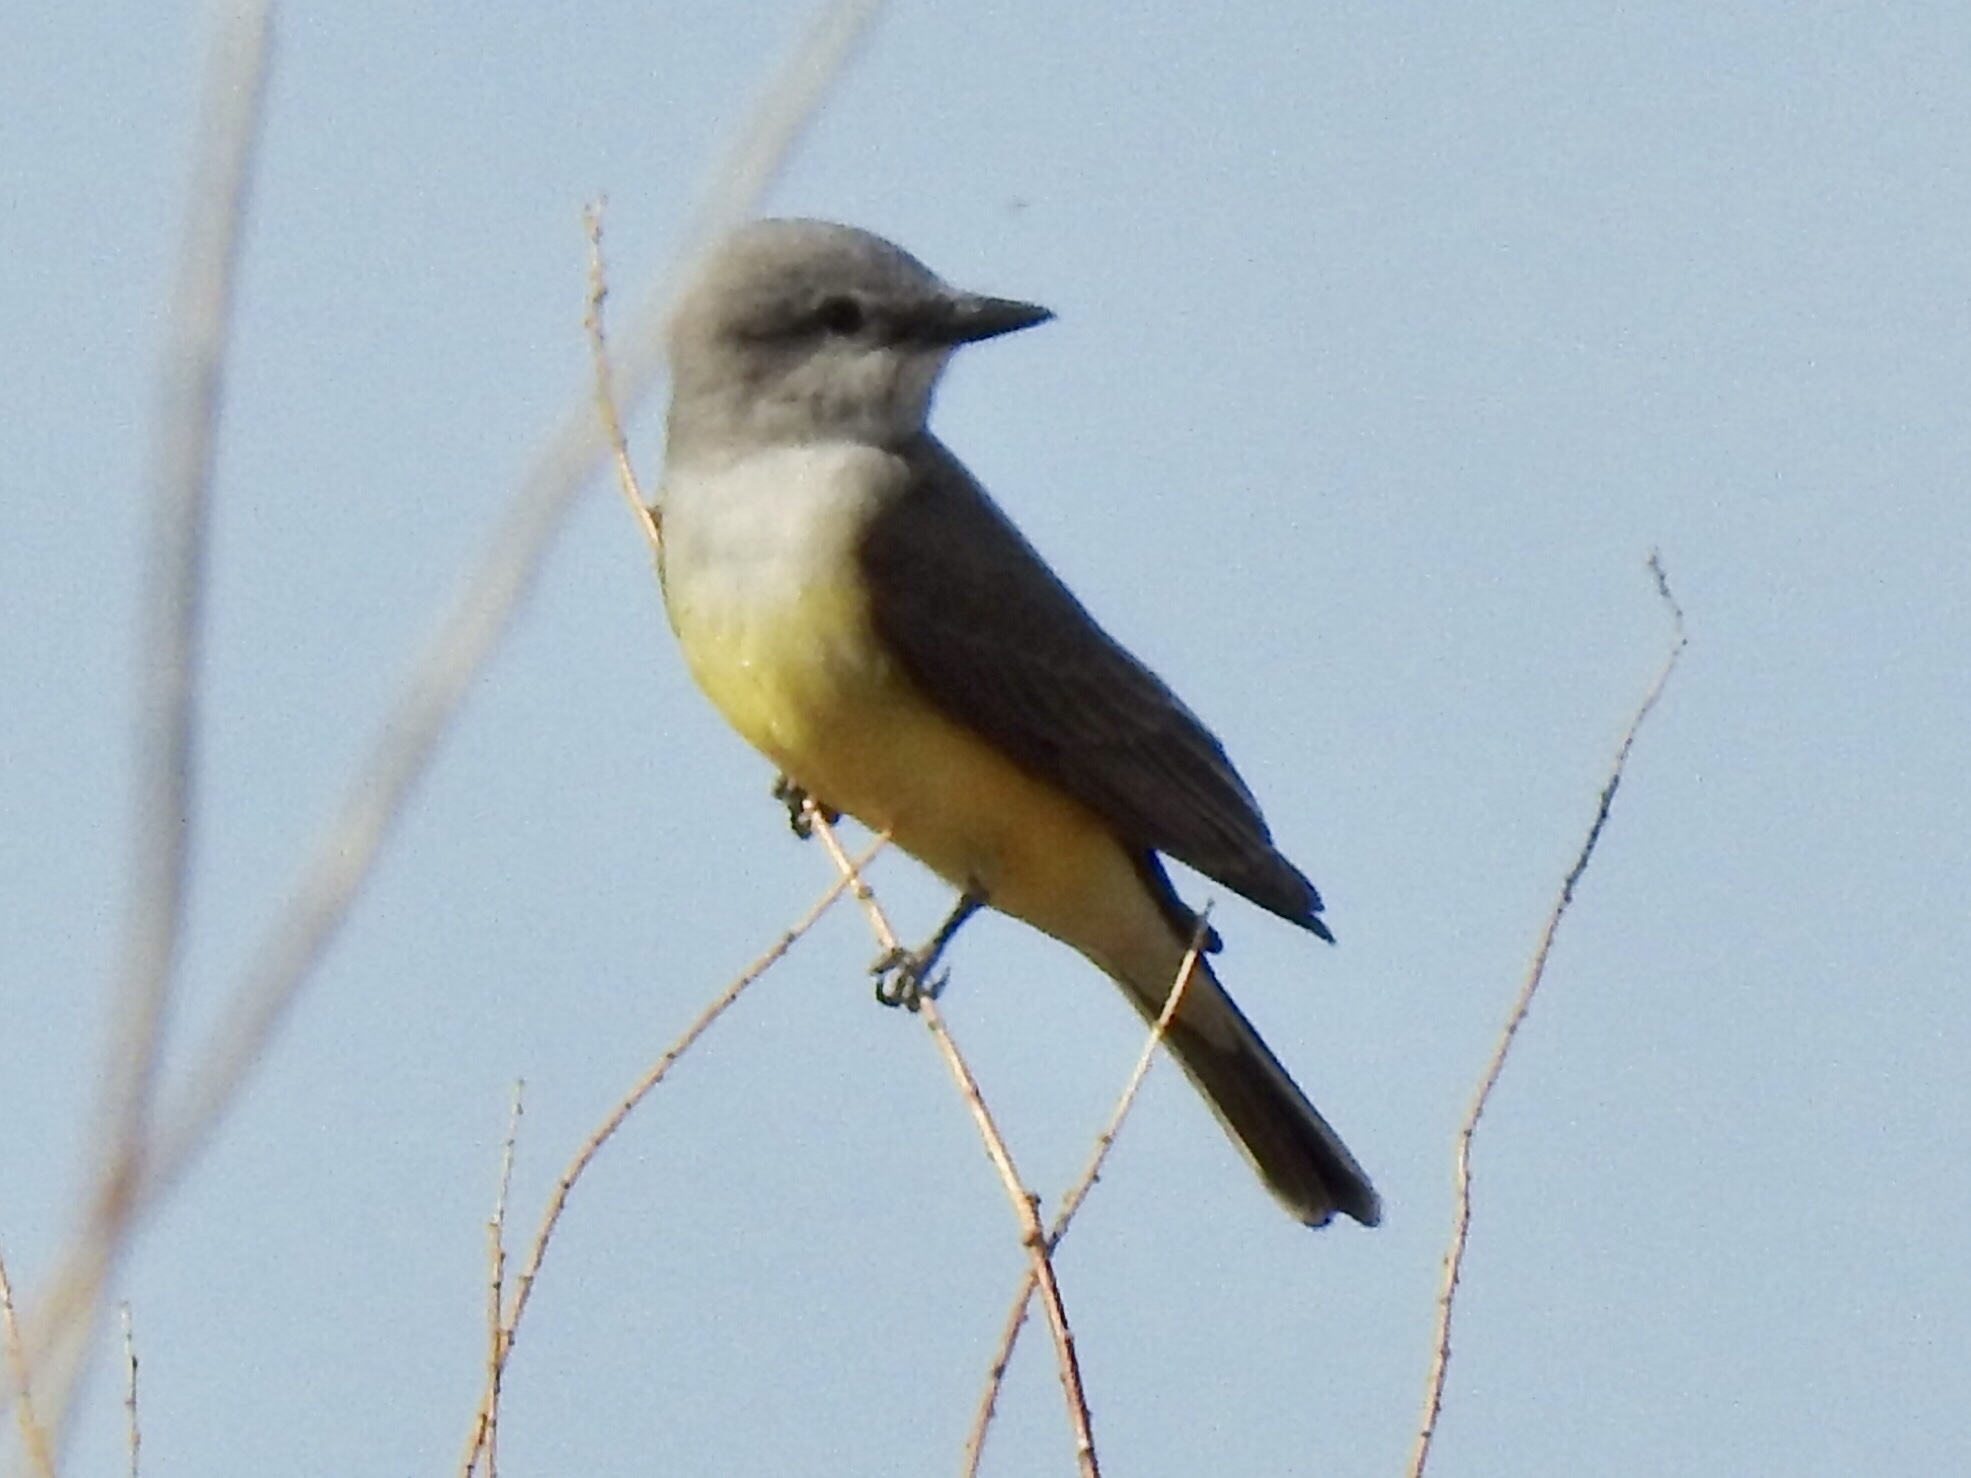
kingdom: Animalia
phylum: Chordata
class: Aves
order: Passeriformes
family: Tyrannidae
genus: Tyrannus
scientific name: Tyrannus verticalis
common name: Western kingbird
